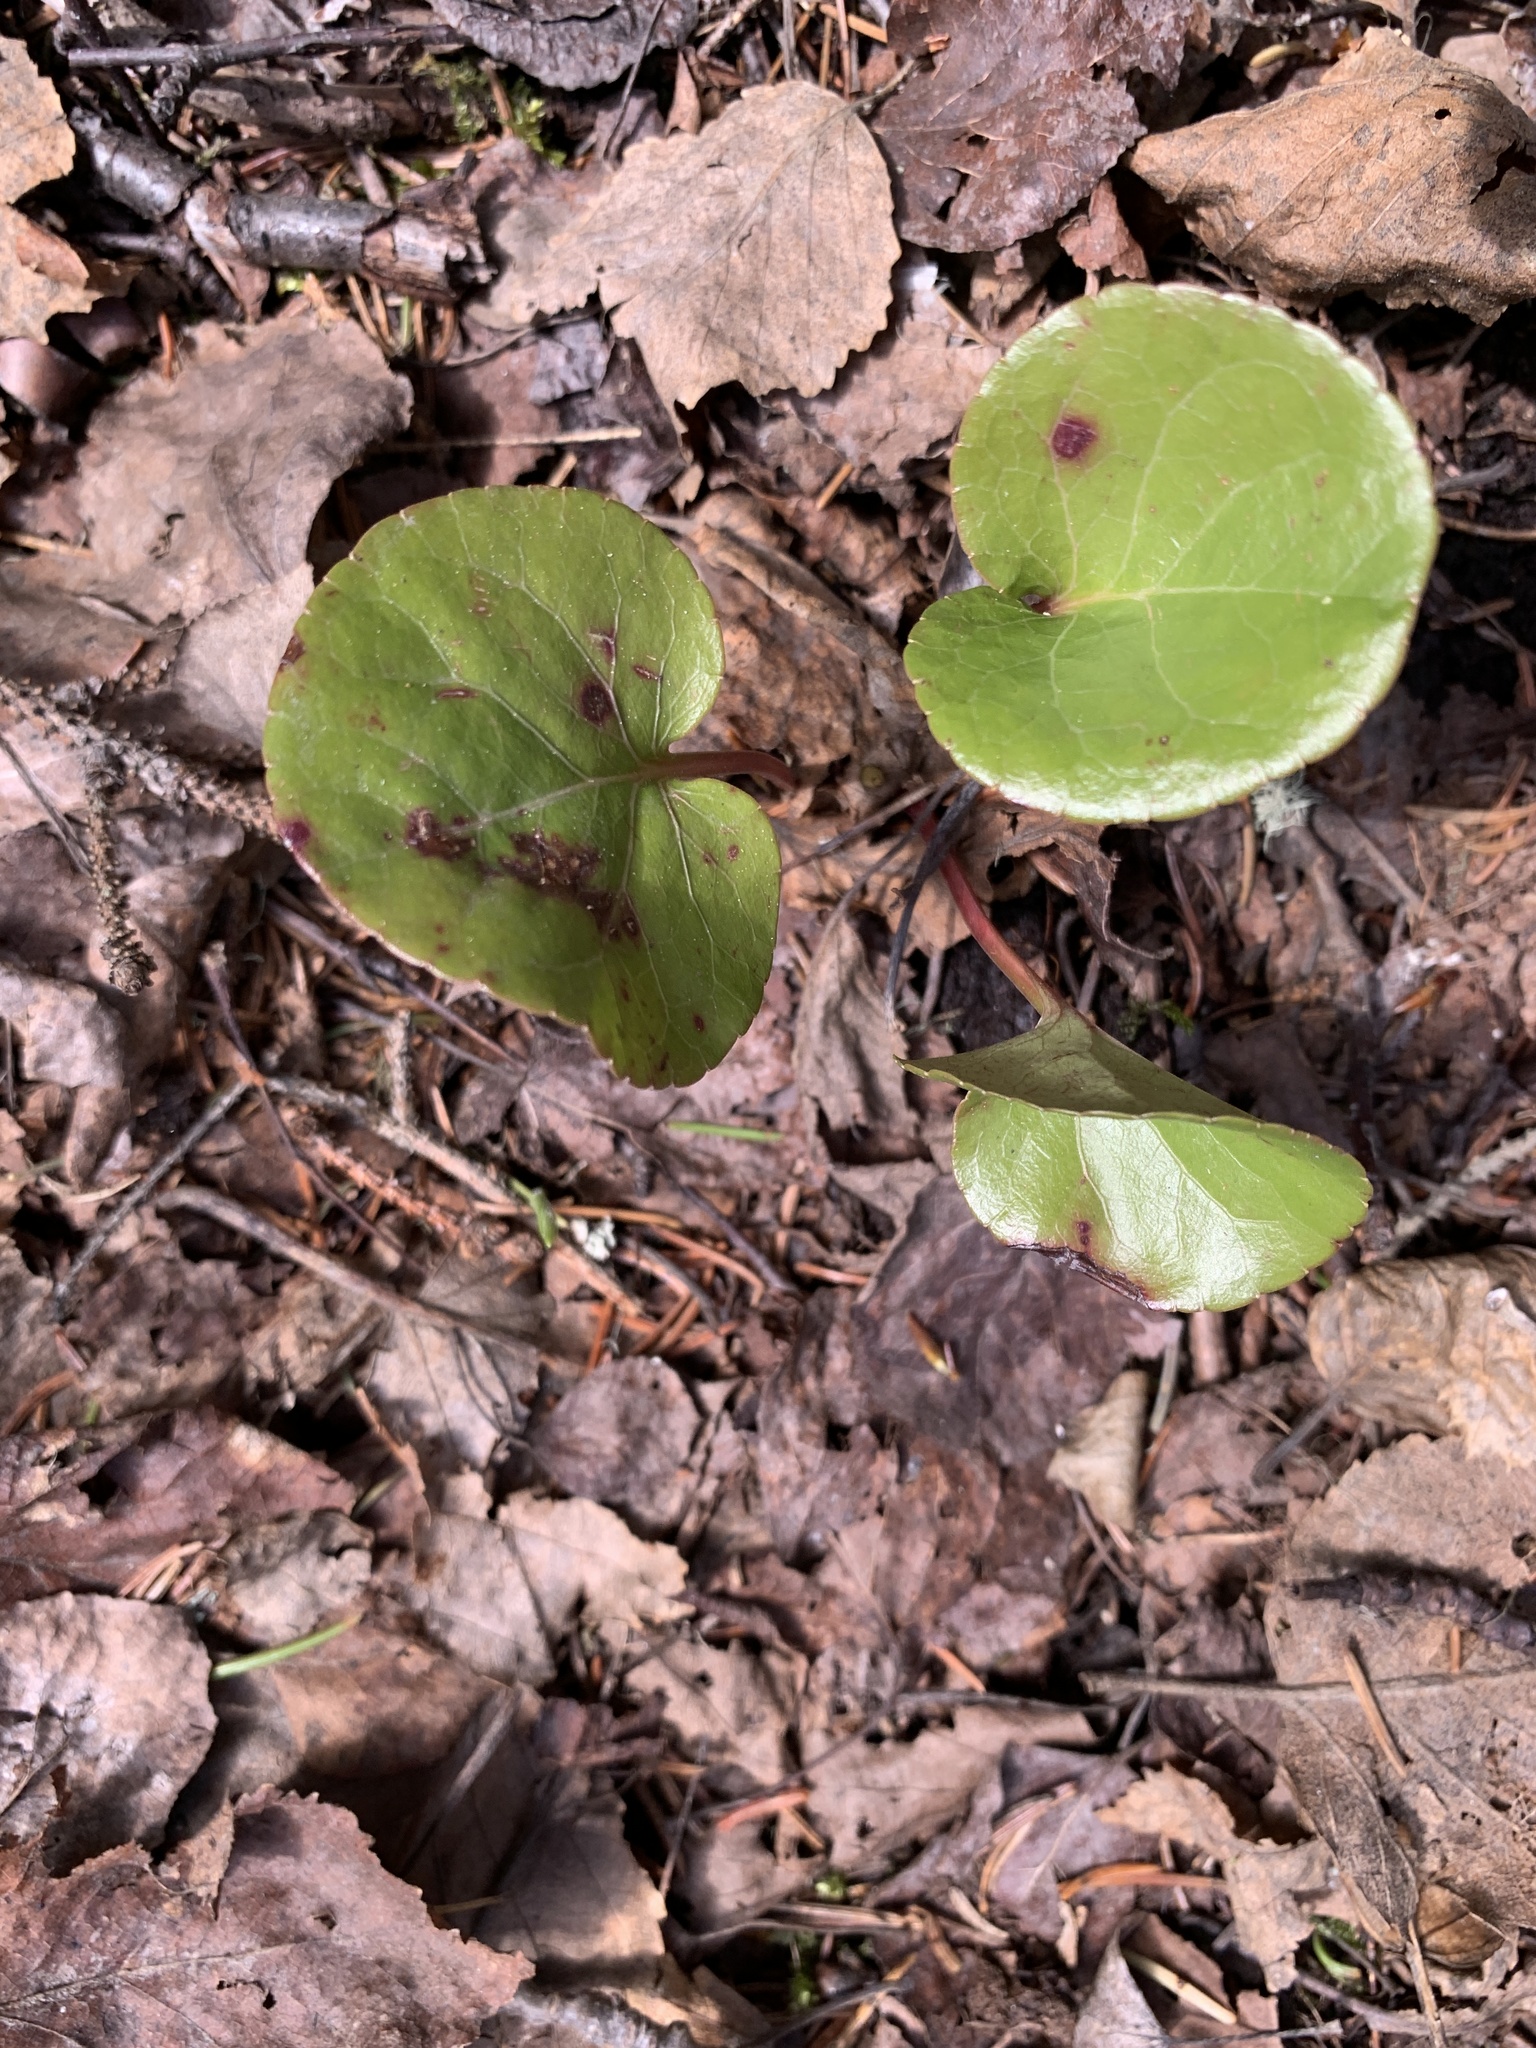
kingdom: Plantae
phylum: Tracheophyta
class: Magnoliopsida
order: Ericales
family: Ericaceae
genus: Pyrola
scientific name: Pyrola asarifolia
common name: Bog wintergreen
